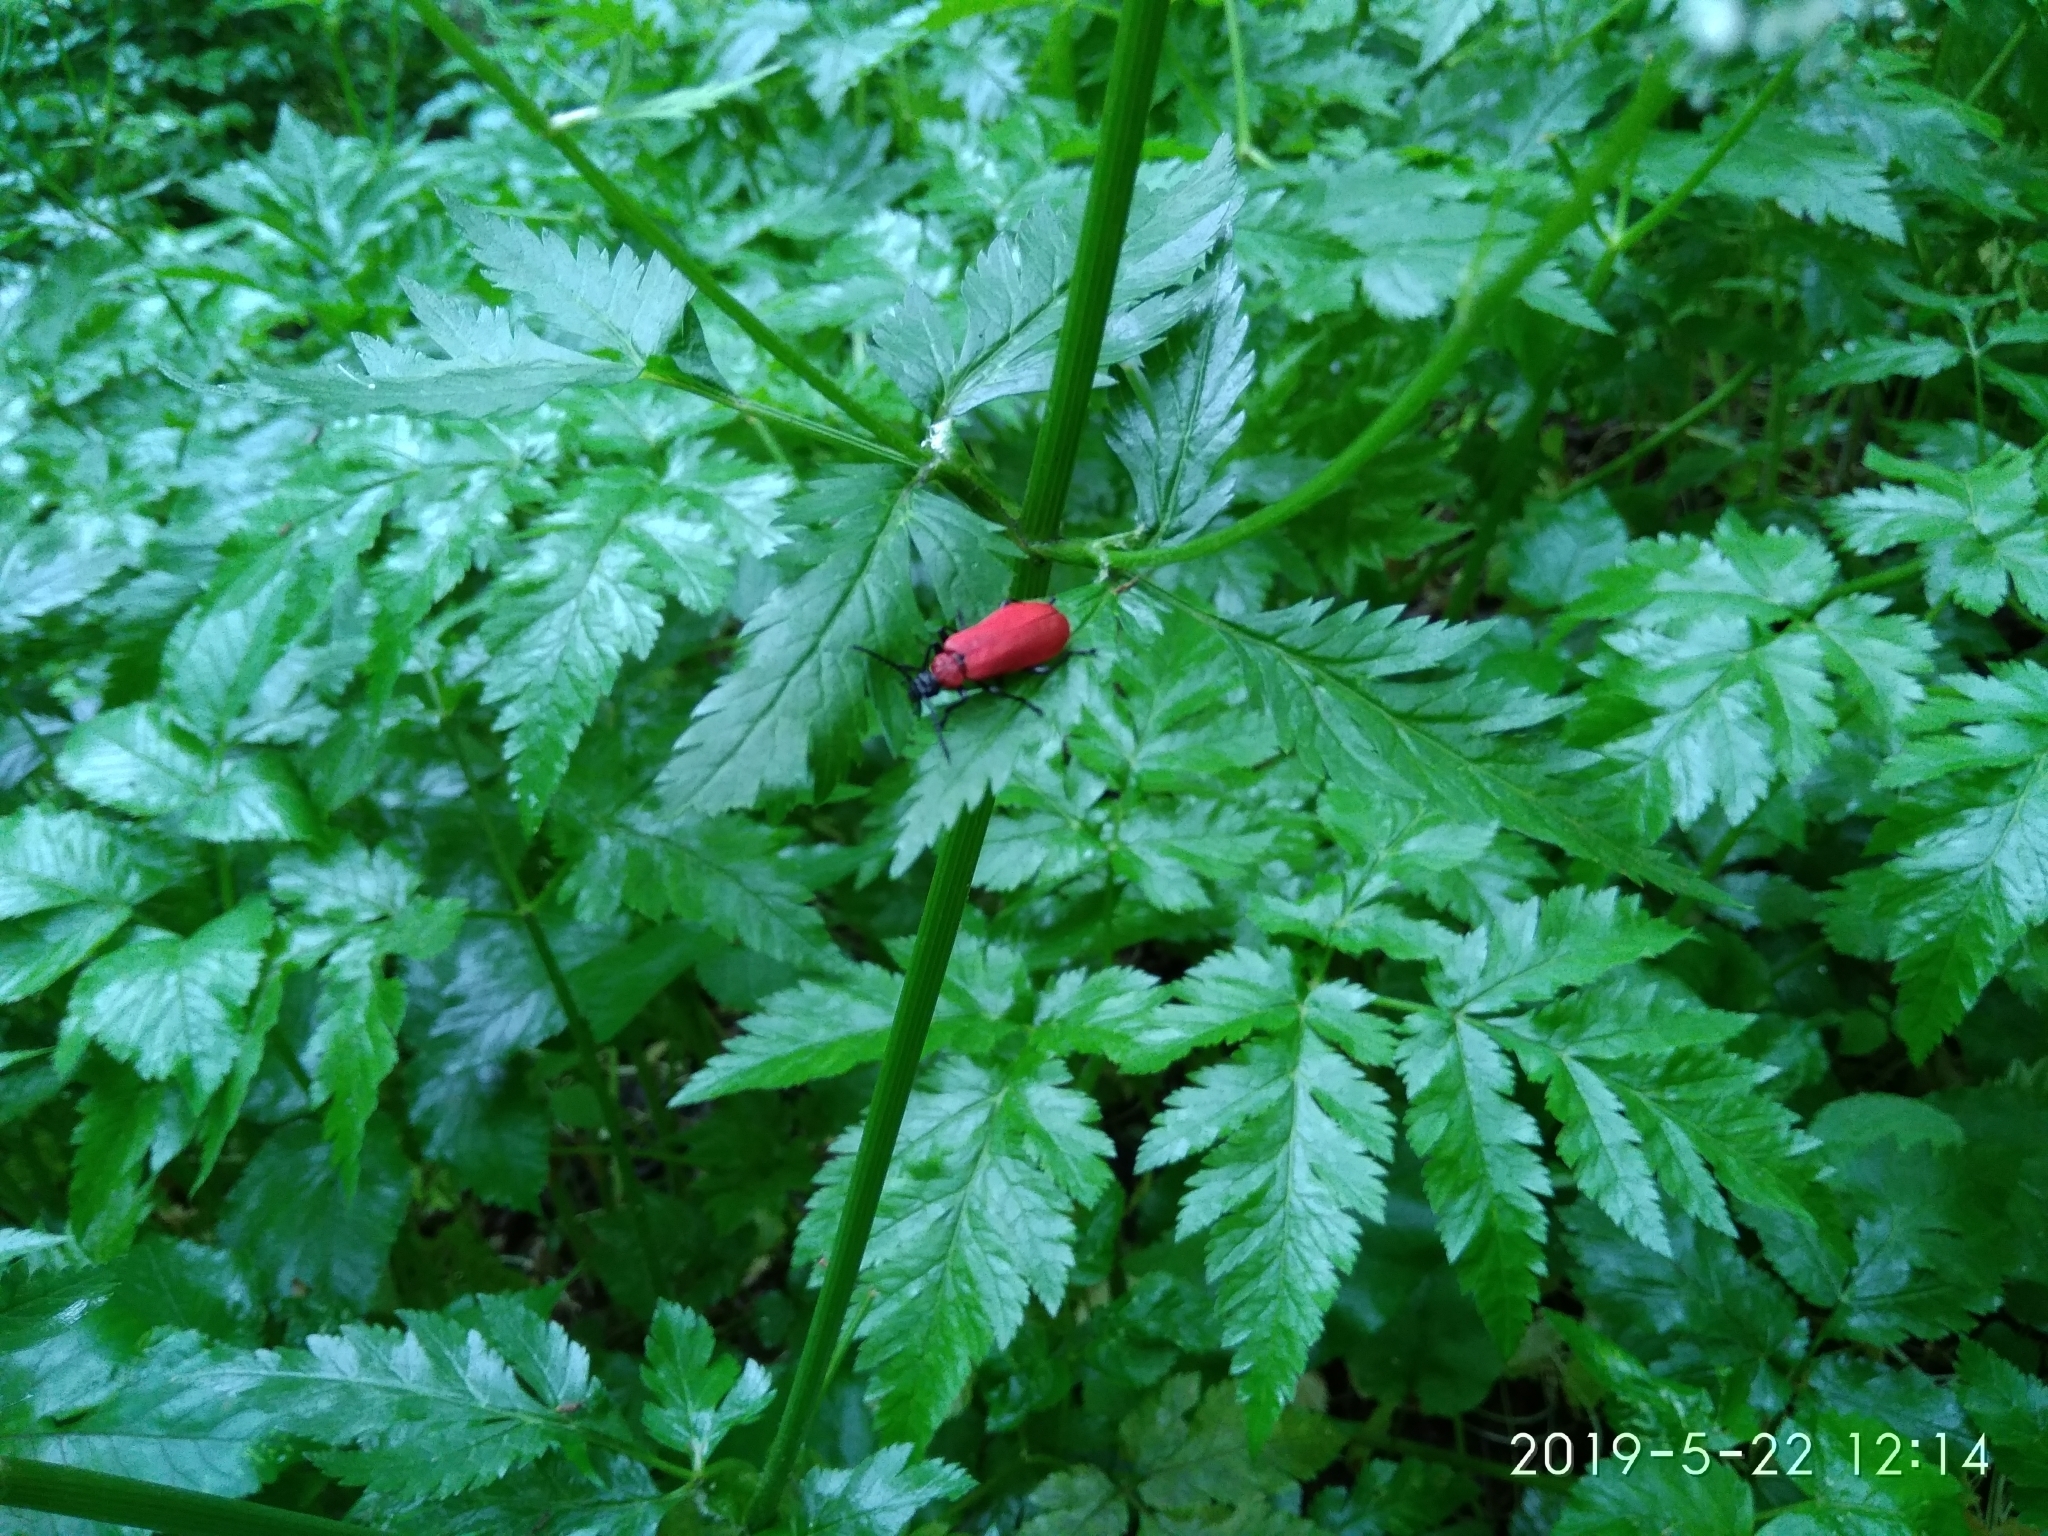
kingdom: Animalia
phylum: Arthropoda
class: Insecta
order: Coleoptera
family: Pyrochroidae
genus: Pyrochroa
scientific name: Pyrochroa coccinea
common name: Black-headed cardinal beetle
